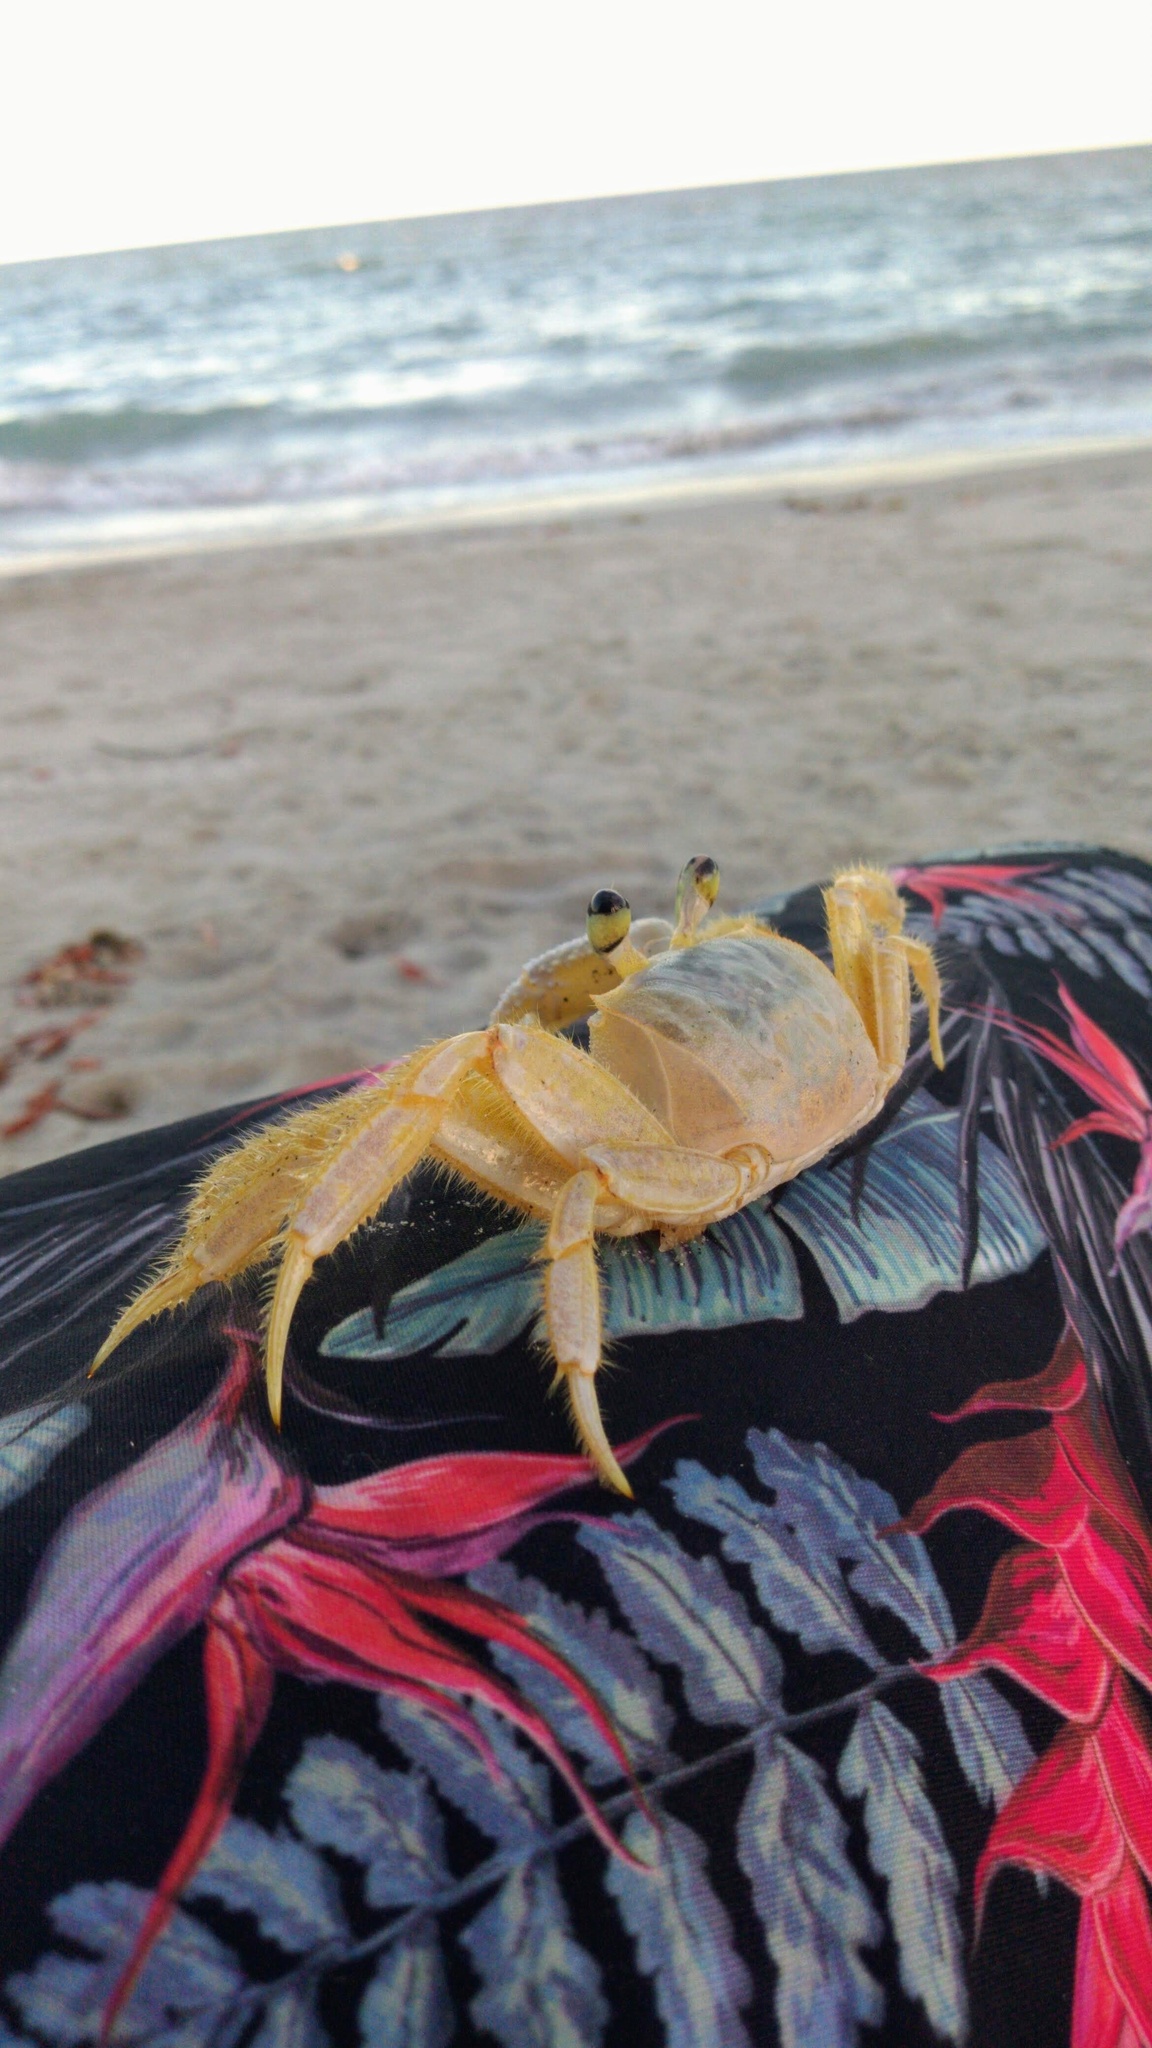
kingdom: Animalia
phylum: Arthropoda
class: Malacostraca
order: Decapoda
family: Ocypodidae
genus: Ocypode
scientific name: Ocypode quadrata
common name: Ghost crab
